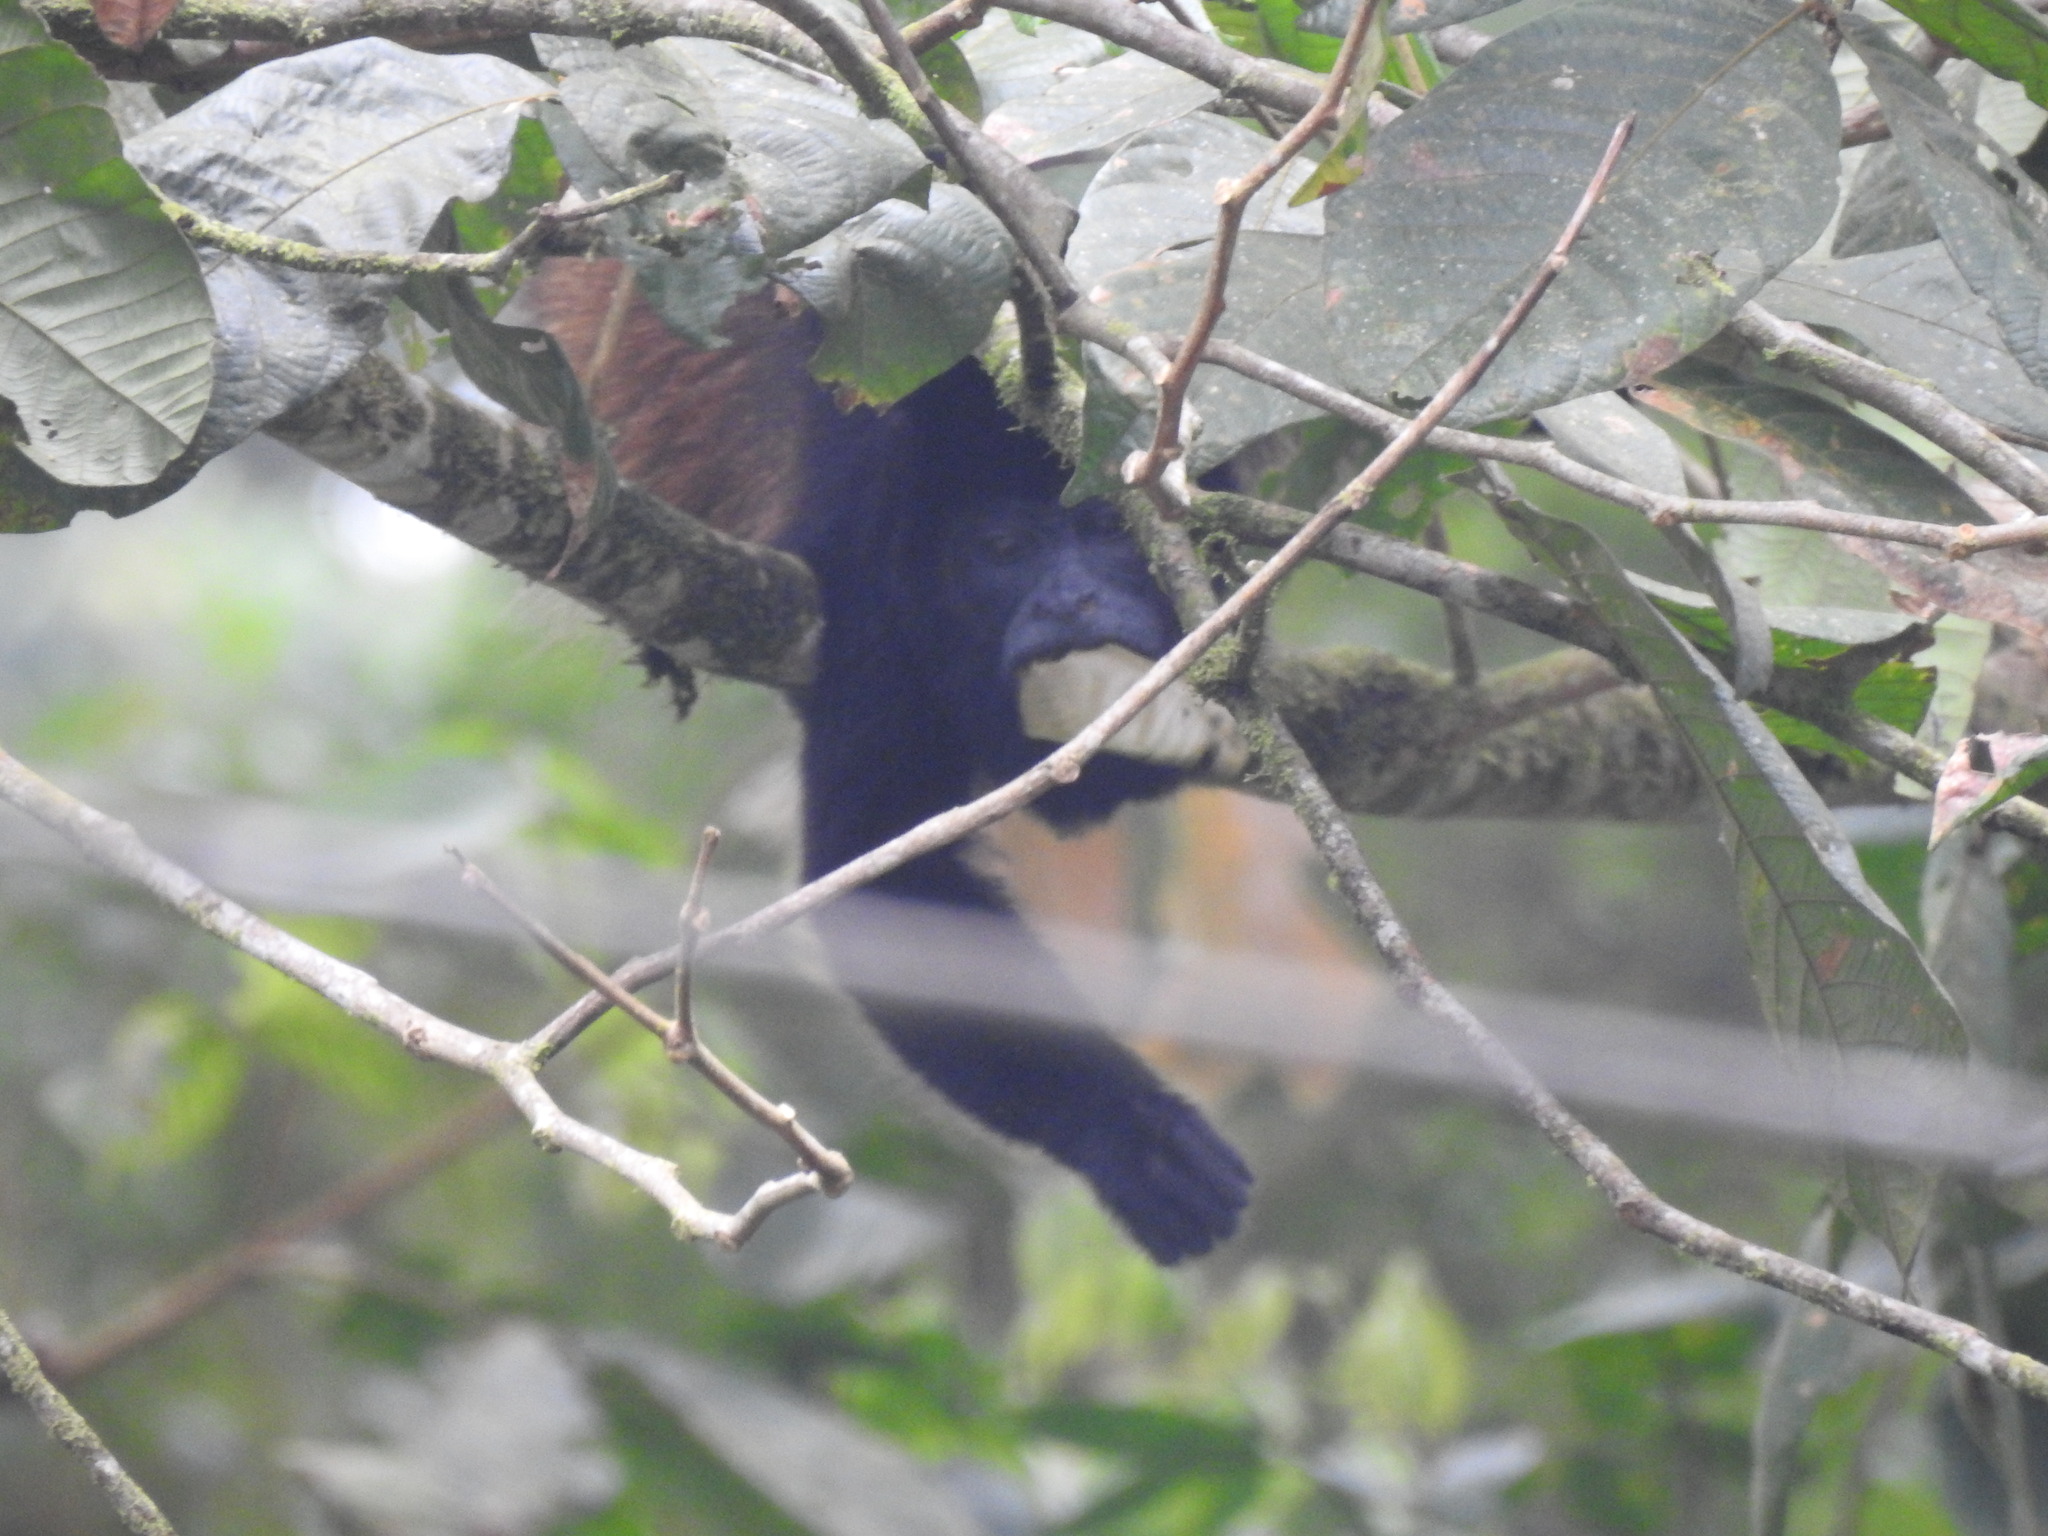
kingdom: Animalia
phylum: Chordata
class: Mammalia
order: Primates
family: Atelidae
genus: Alouatta
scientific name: Alouatta palliata
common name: Mantled howler
